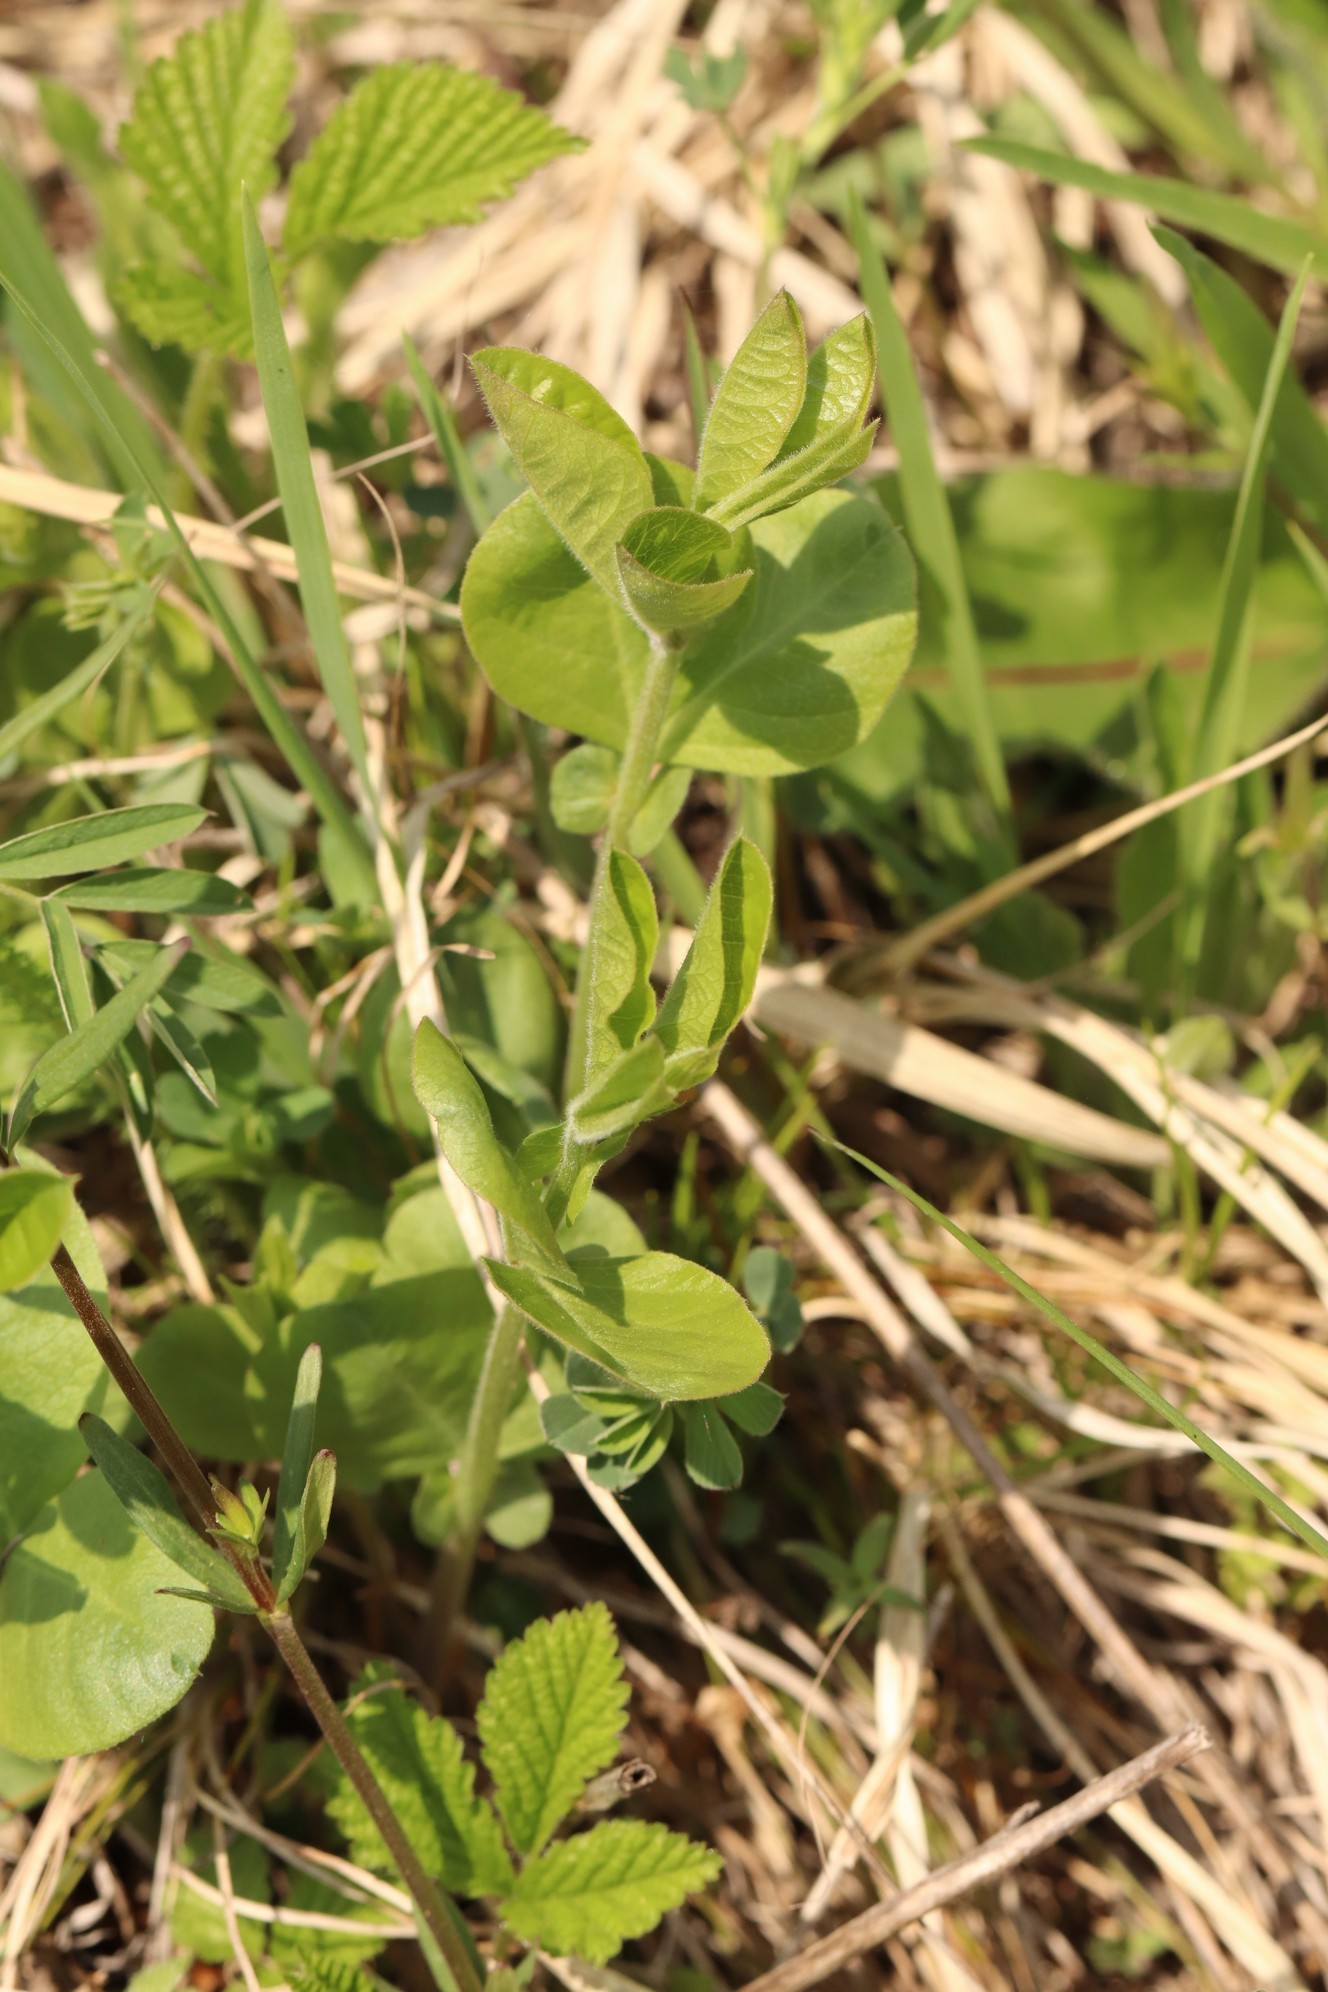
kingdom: Plantae
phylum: Tracheophyta
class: Magnoliopsida
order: Fabales
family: Fabaceae
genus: Vicia
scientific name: Vicia unijuga
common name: Two-leaf vetch
